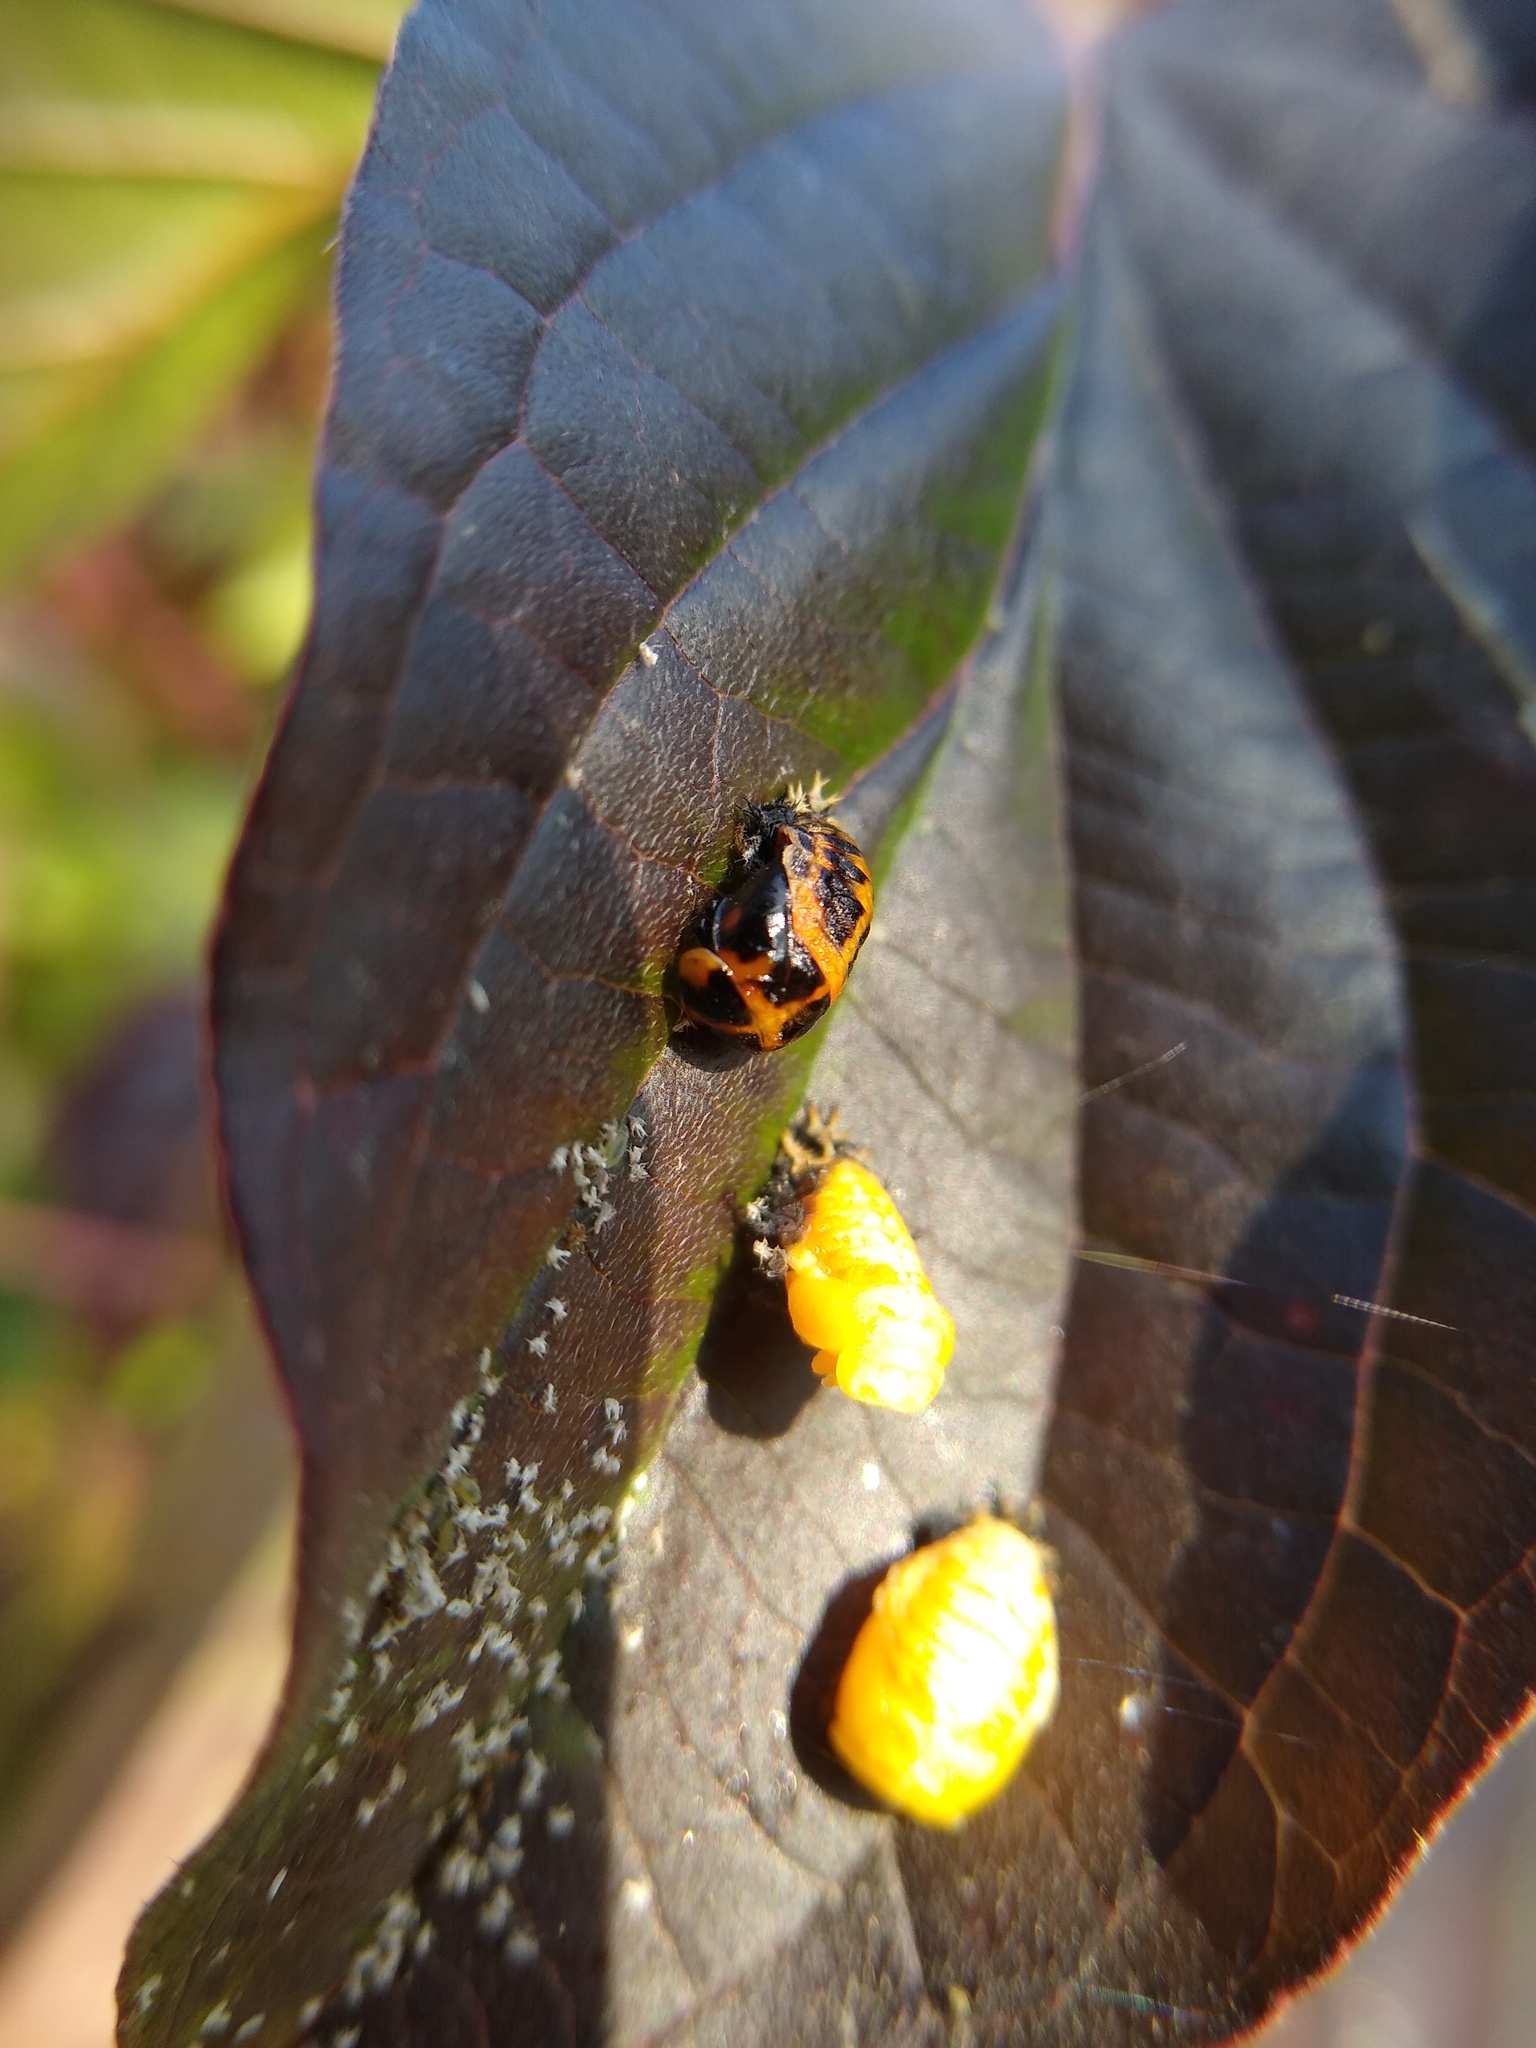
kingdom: Animalia
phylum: Arthropoda
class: Insecta
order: Coleoptera
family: Coccinellidae
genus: Harmonia
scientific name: Harmonia axyridis
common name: Harlequin ladybird
